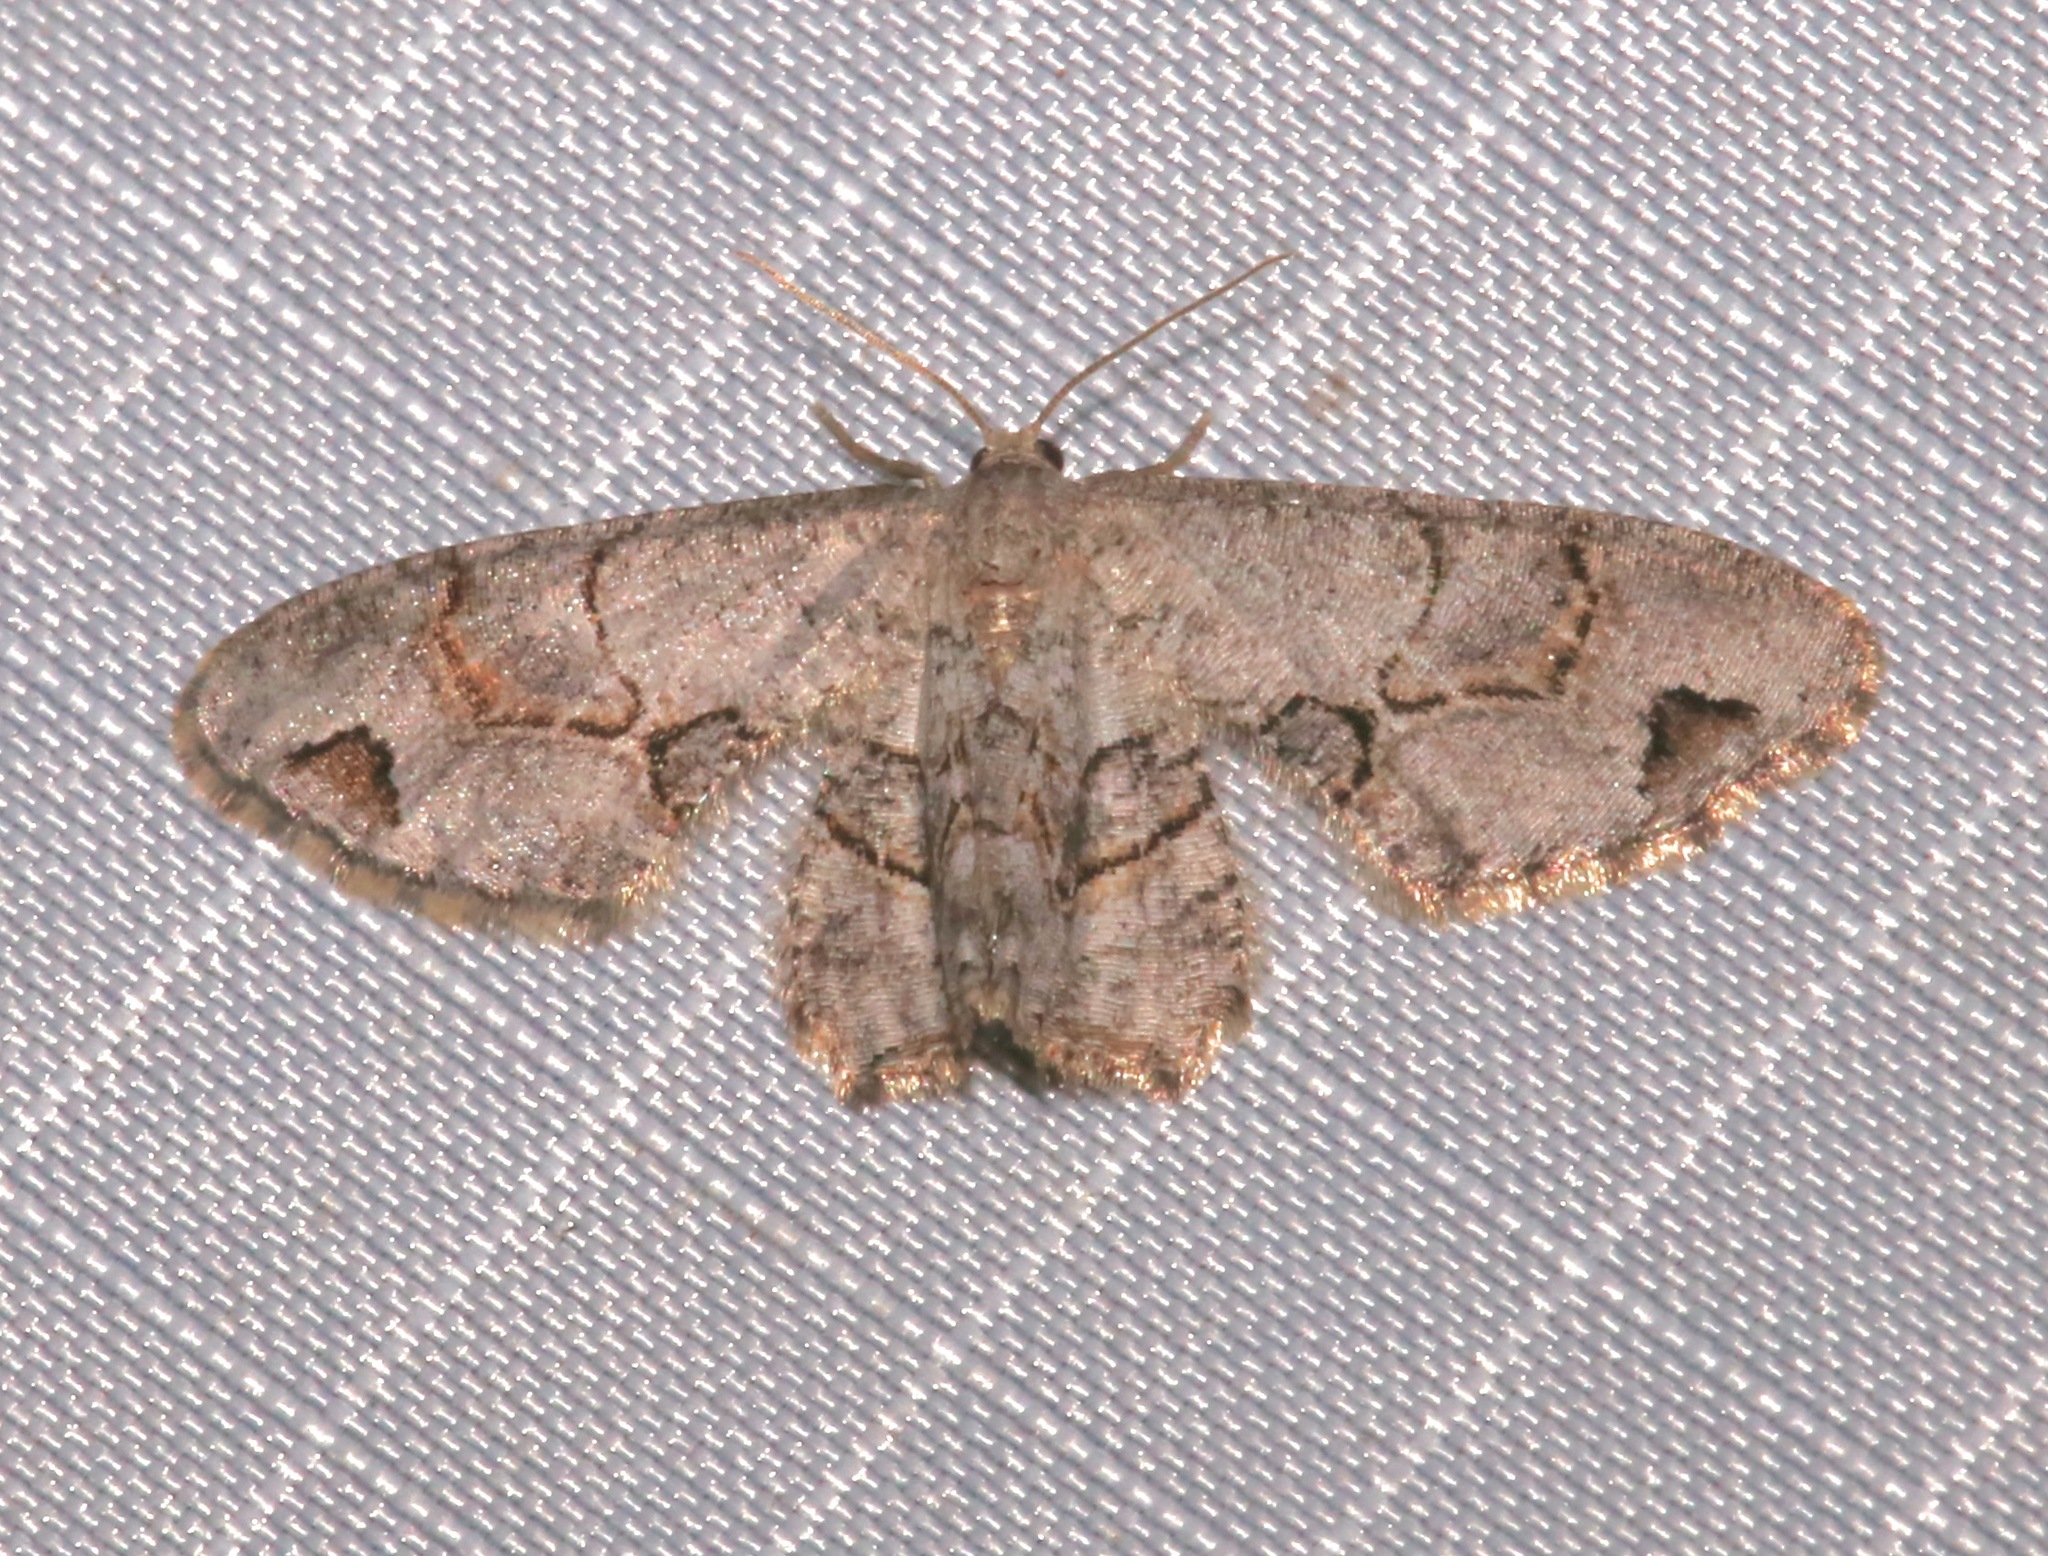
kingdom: Animalia
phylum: Arthropoda
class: Insecta
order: Lepidoptera
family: Uraniidae
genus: Epiplema
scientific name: Epiplema Callizzia amorata
